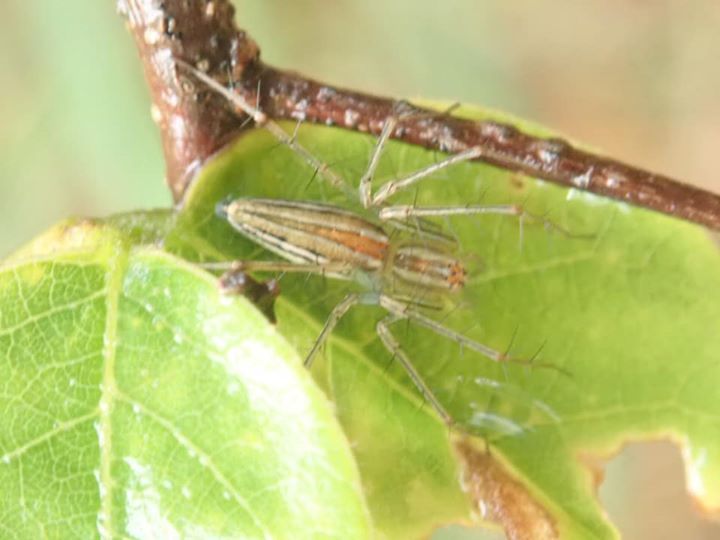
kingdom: Animalia
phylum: Arthropoda
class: Arachnida
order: Araneae
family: Oxyopidae
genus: Oxyopes
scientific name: Oxyopes macilentus
